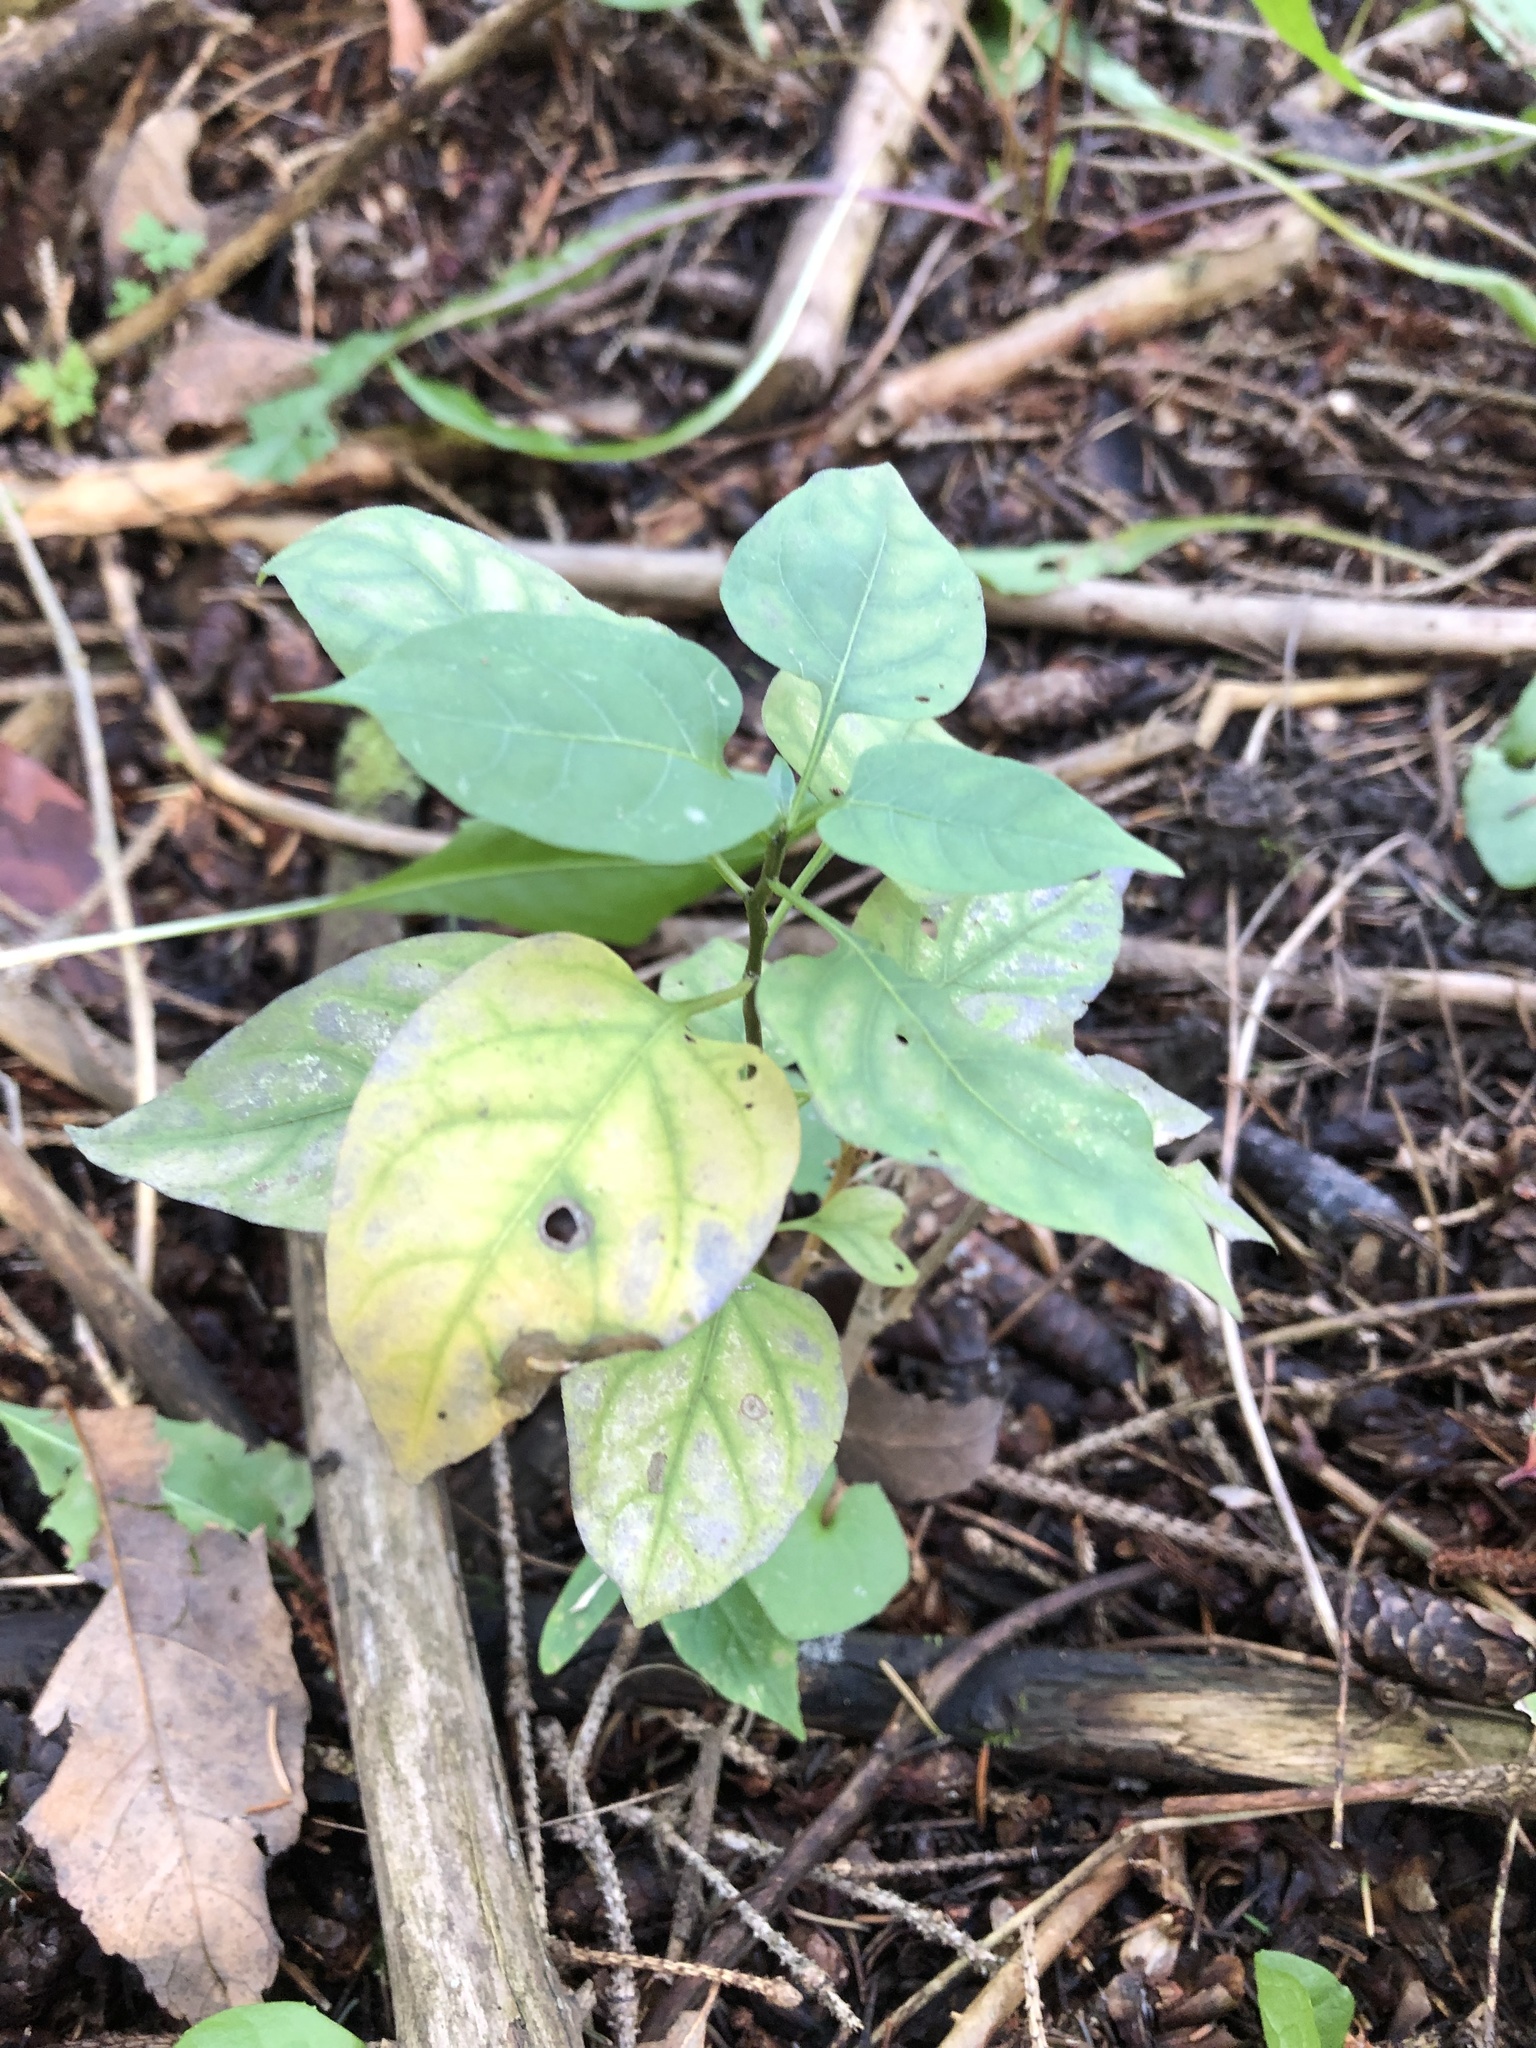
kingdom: Plantae
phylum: Tracheophyta
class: Magnoliopsida
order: Solanales
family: Solanaceae
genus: Solanum
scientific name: Solanum dulcamara
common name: Climbing nightshade
